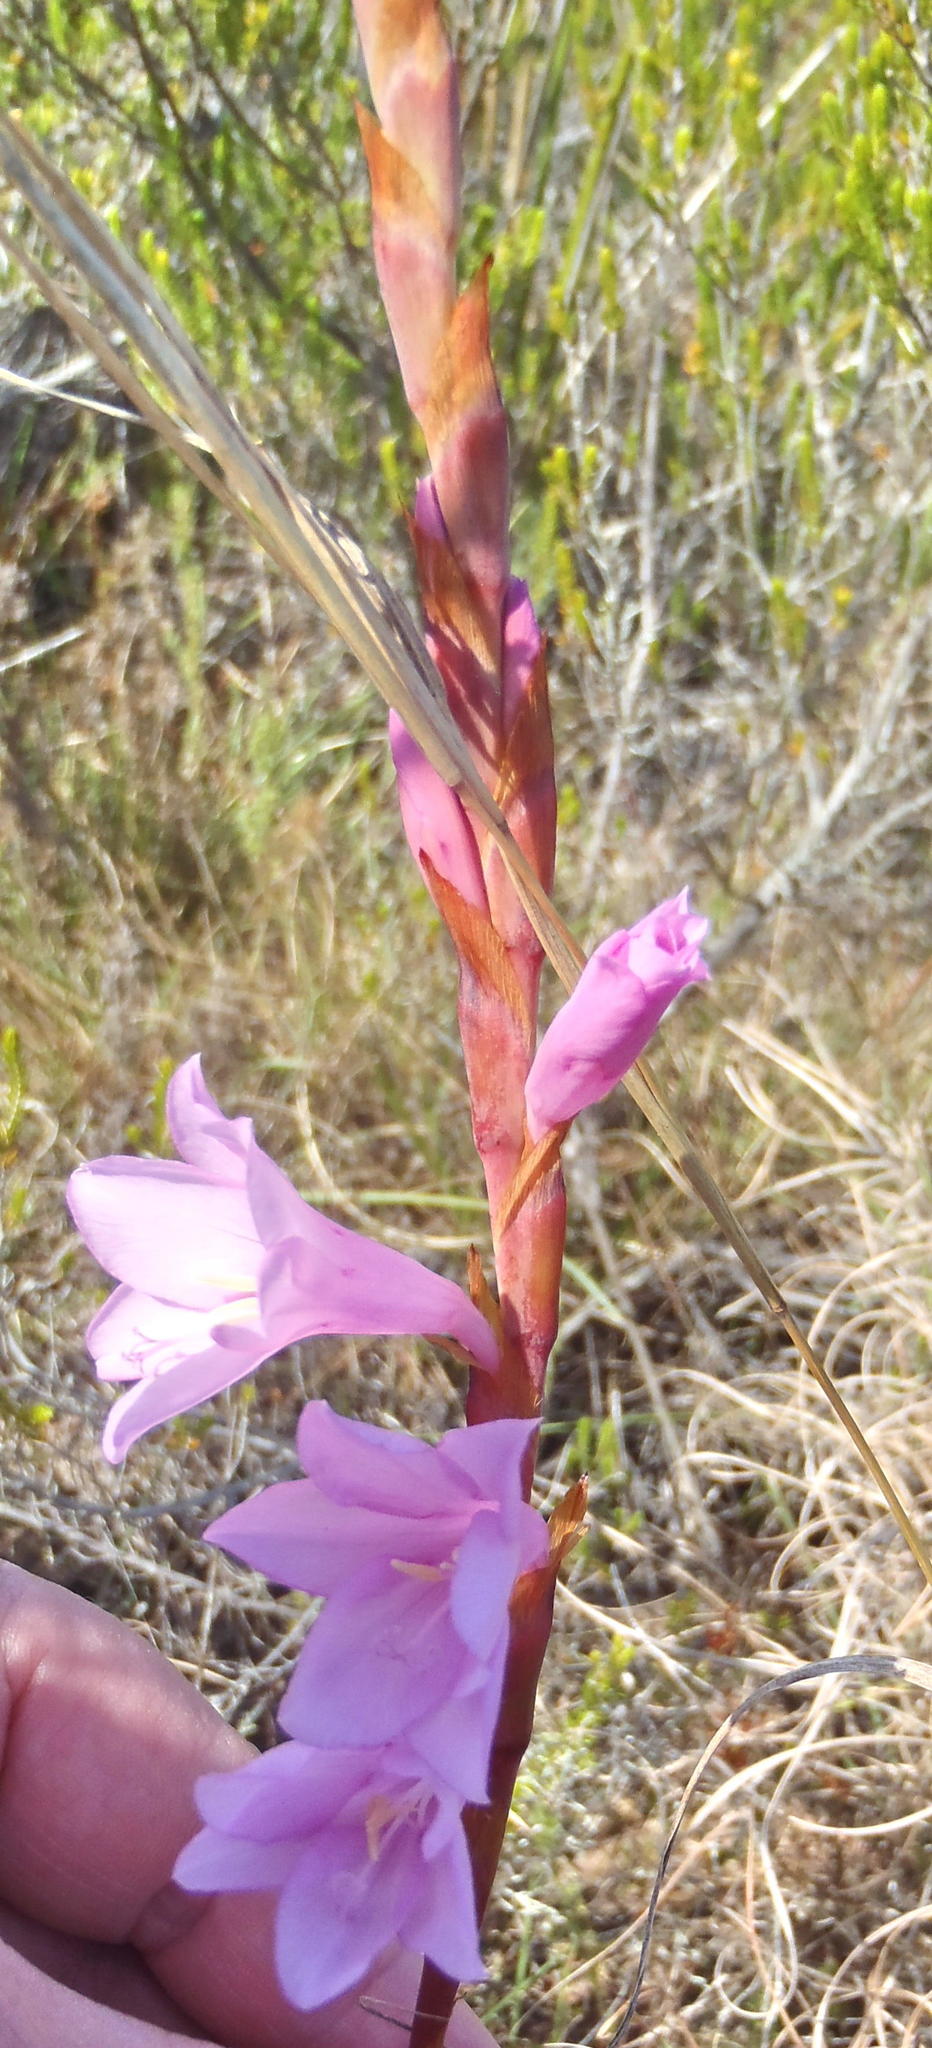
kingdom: Plantae
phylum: Tracheophyta
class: Liliopsida
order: Asparagales
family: Iridaceae
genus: Watsonia
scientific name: Watsonia laccata
